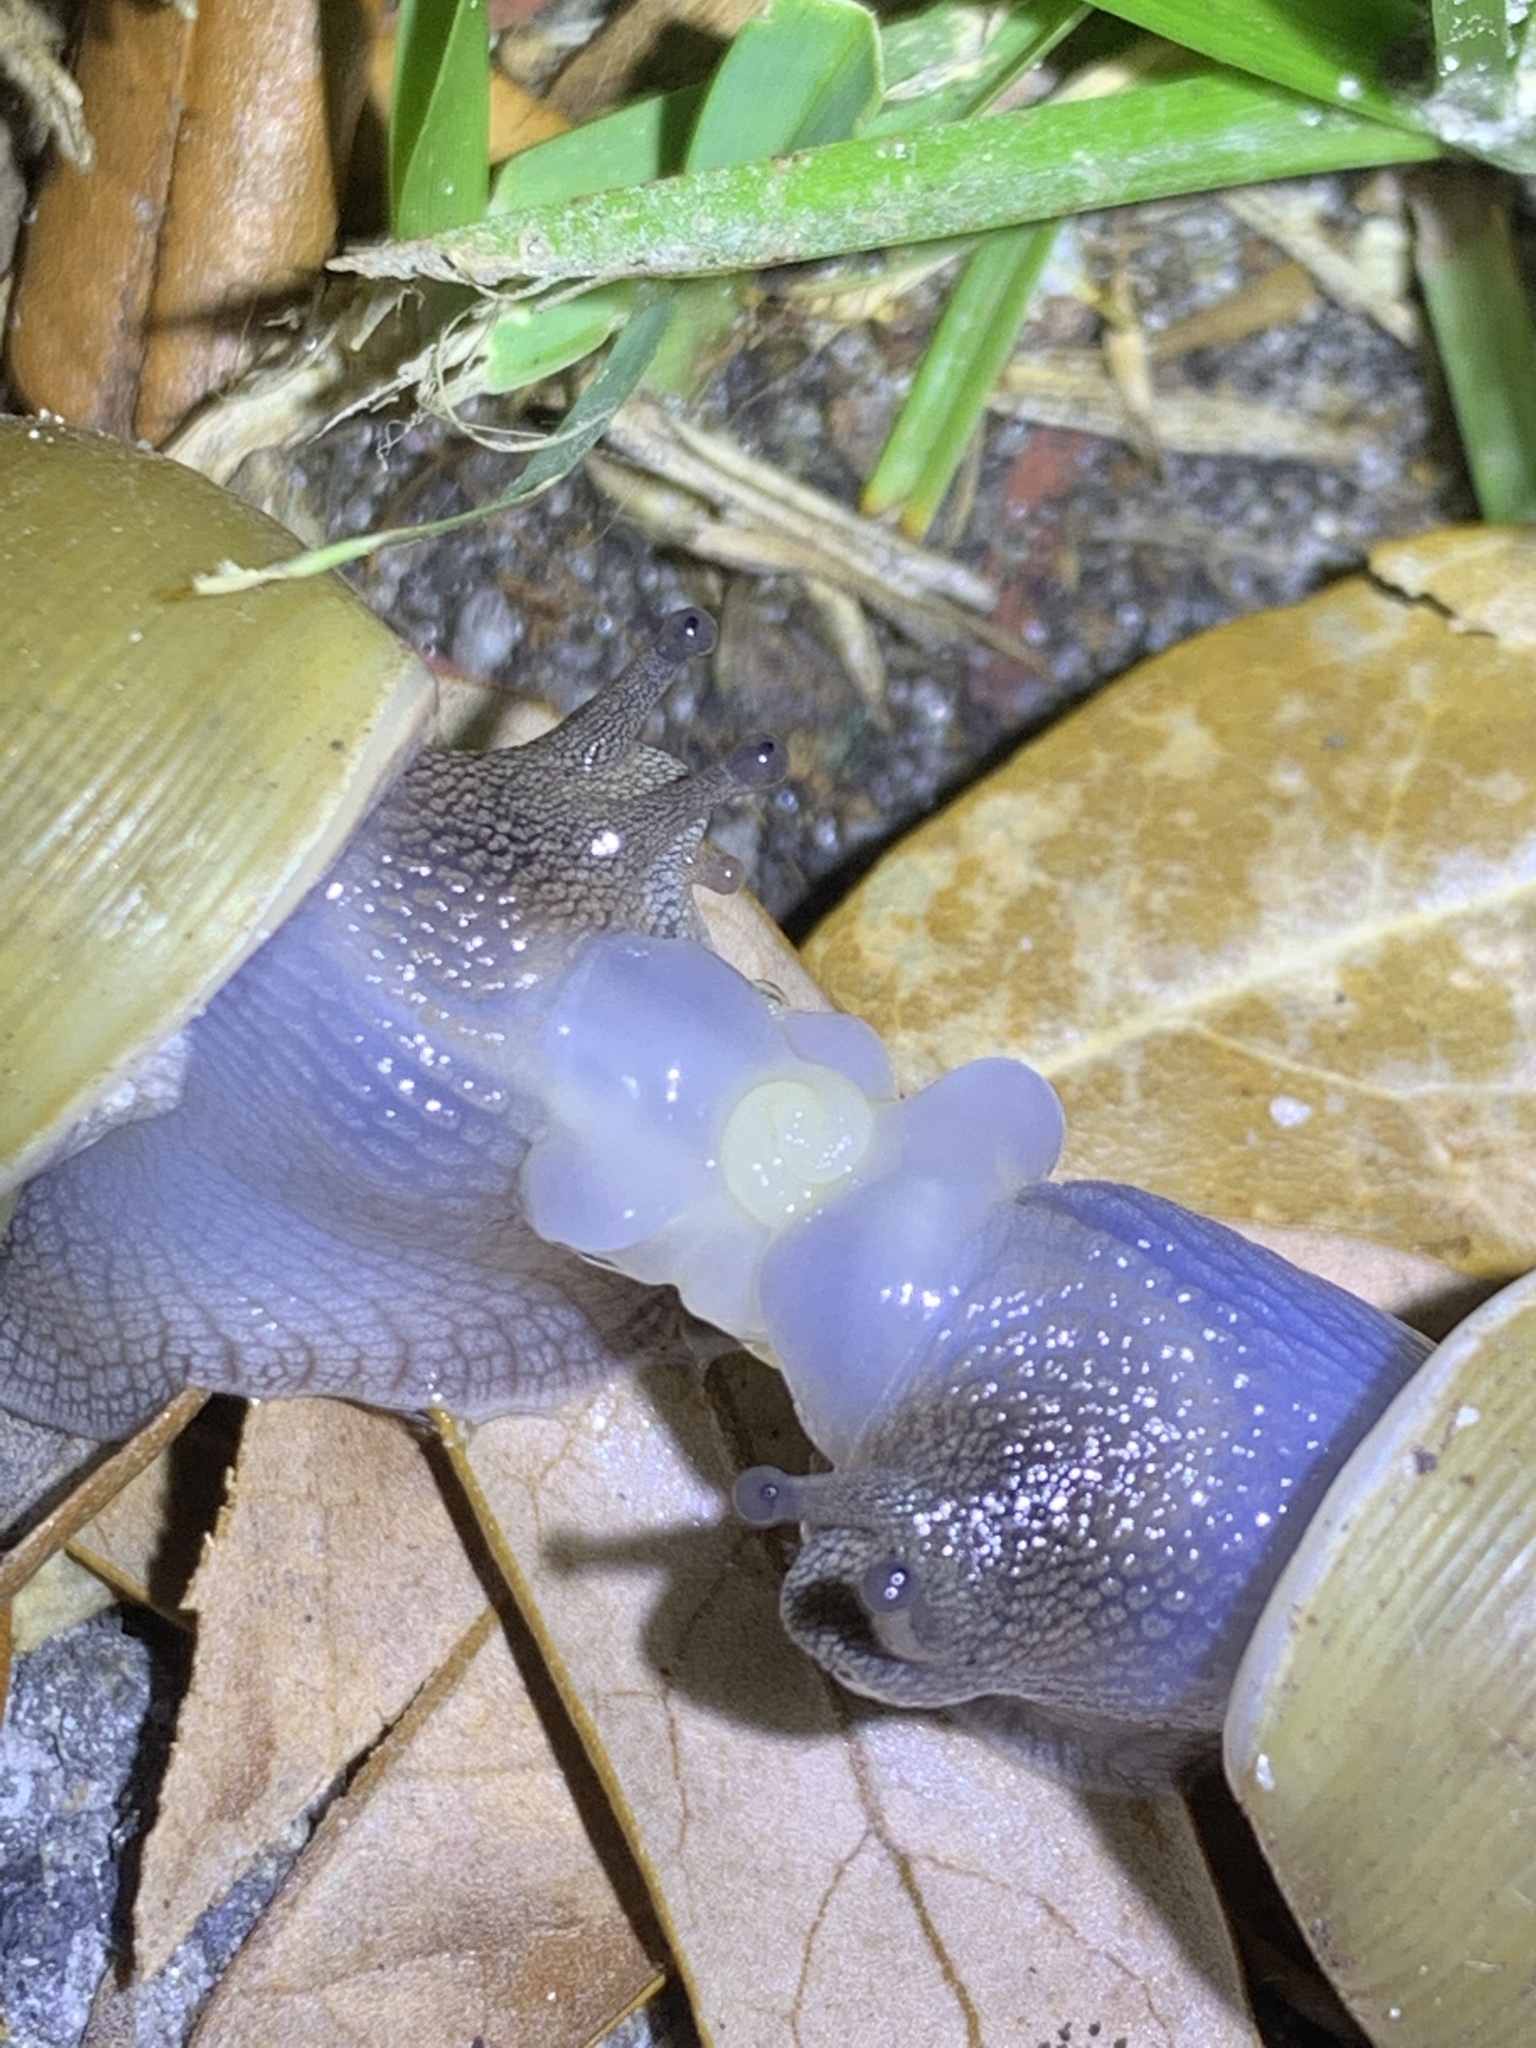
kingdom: Animalia
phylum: Mollusca
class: Gastropoda
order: Stylommatophora
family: Zachrysiidae
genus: Zachrysia
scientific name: Zachrysia provisoria
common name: Garden zachrysia
